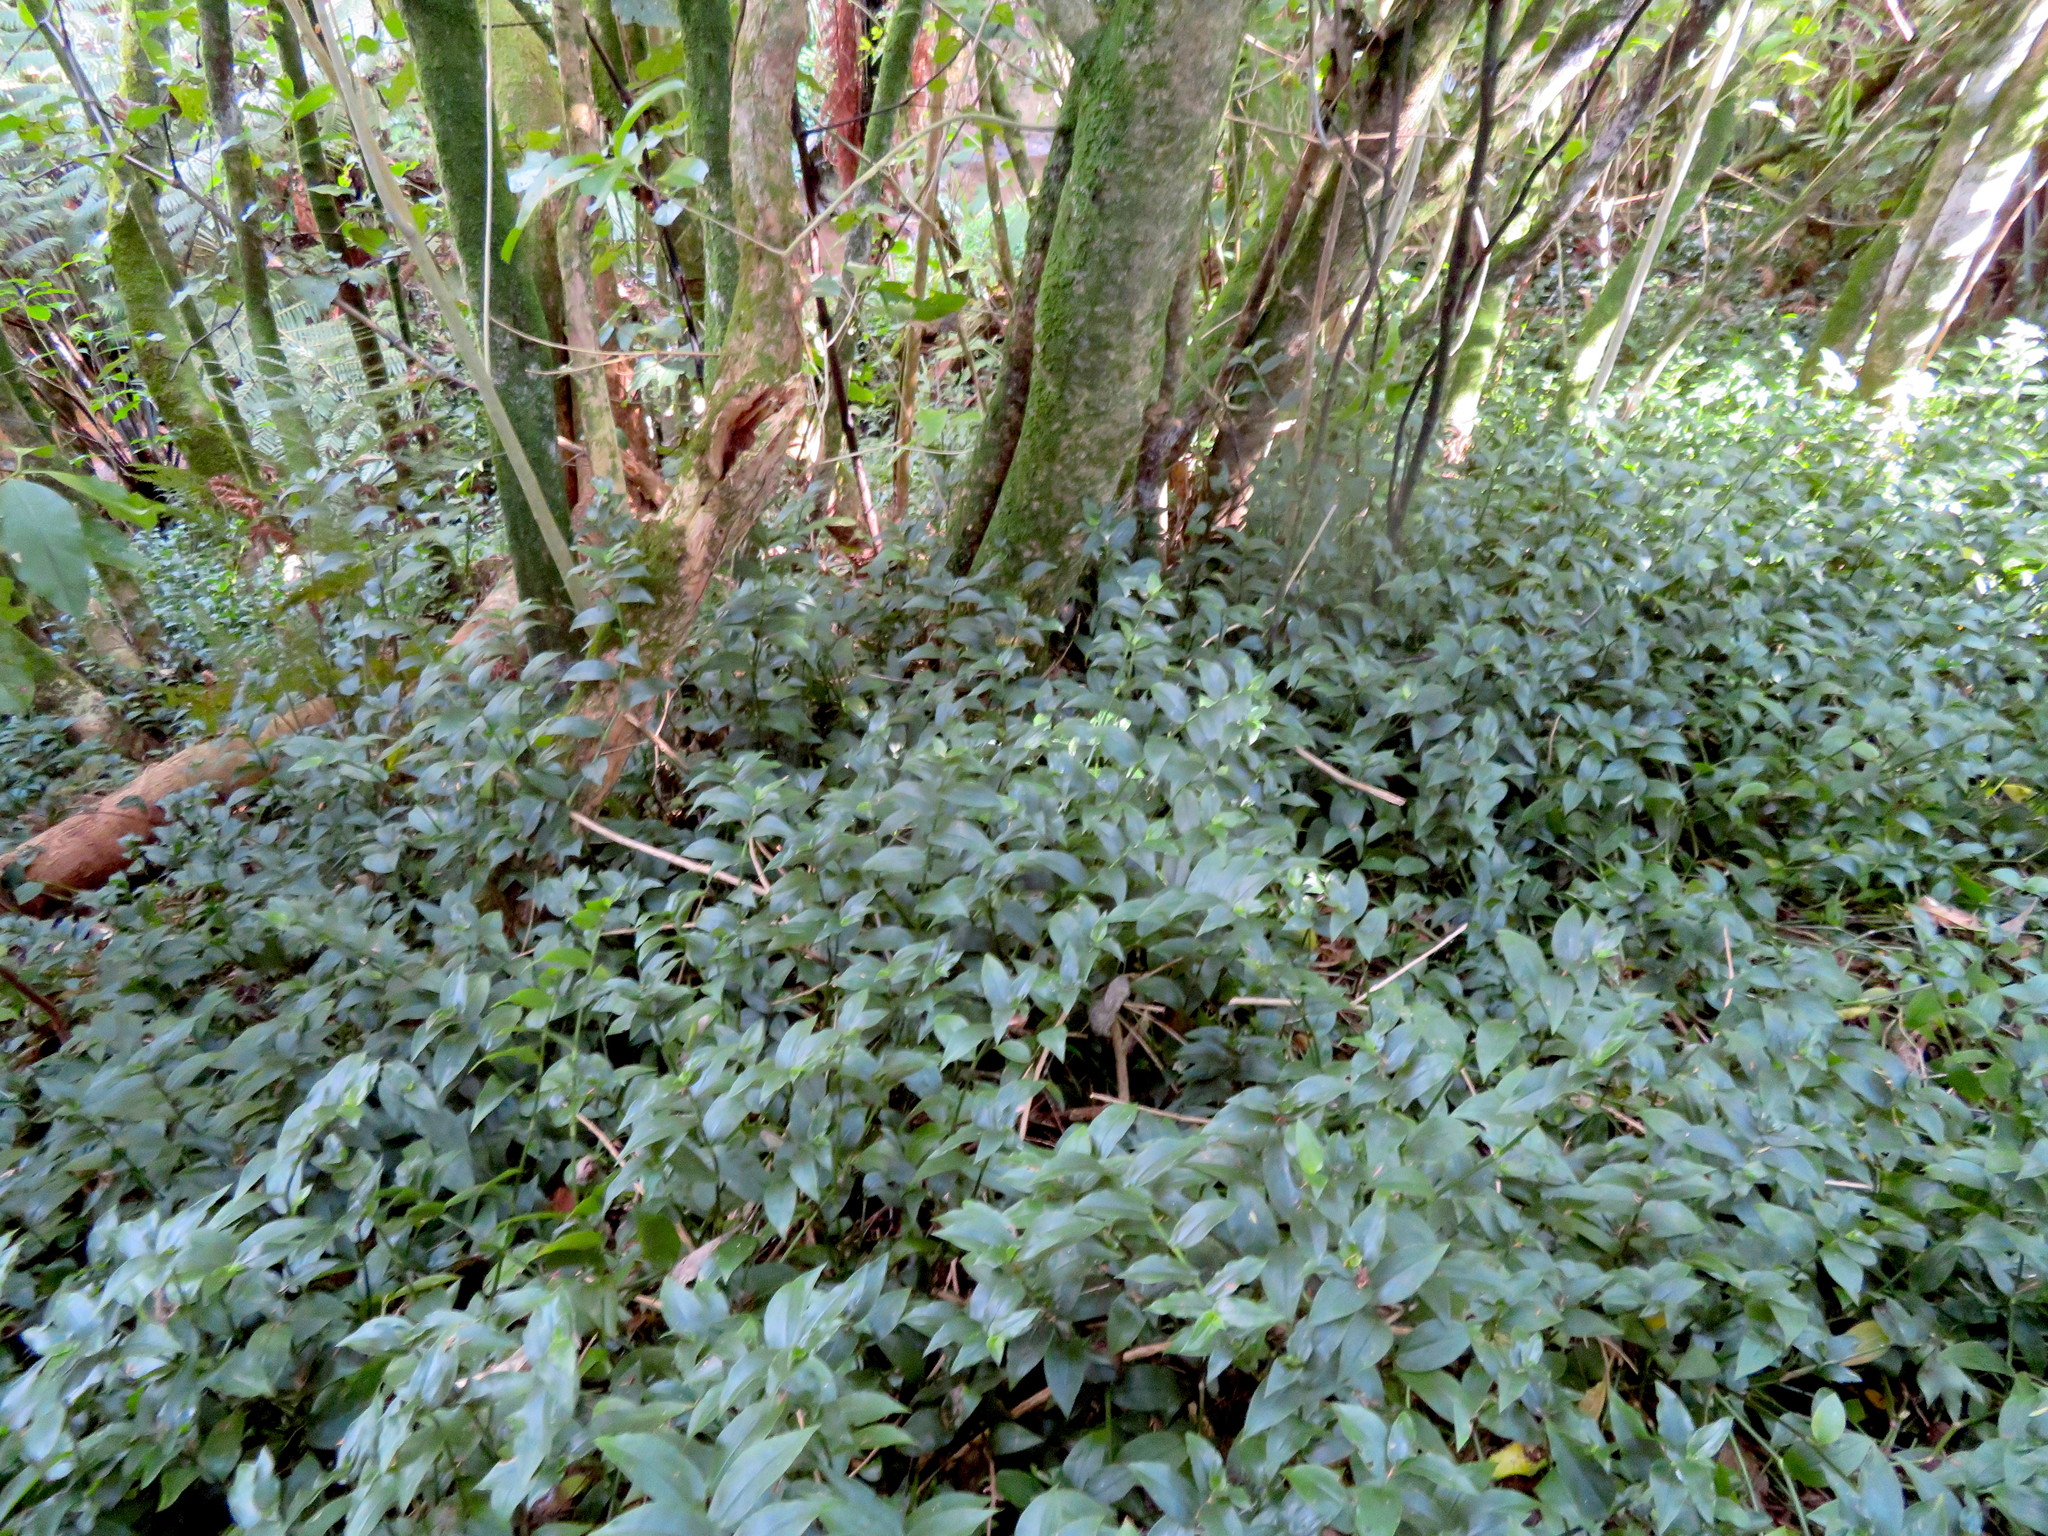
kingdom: Plantae
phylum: Tracheophyta
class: Liliopsida
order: Commelinales
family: Commelinaceae
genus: Tradescantia
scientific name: Tradescantia fluminensis
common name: Wandering-jew
